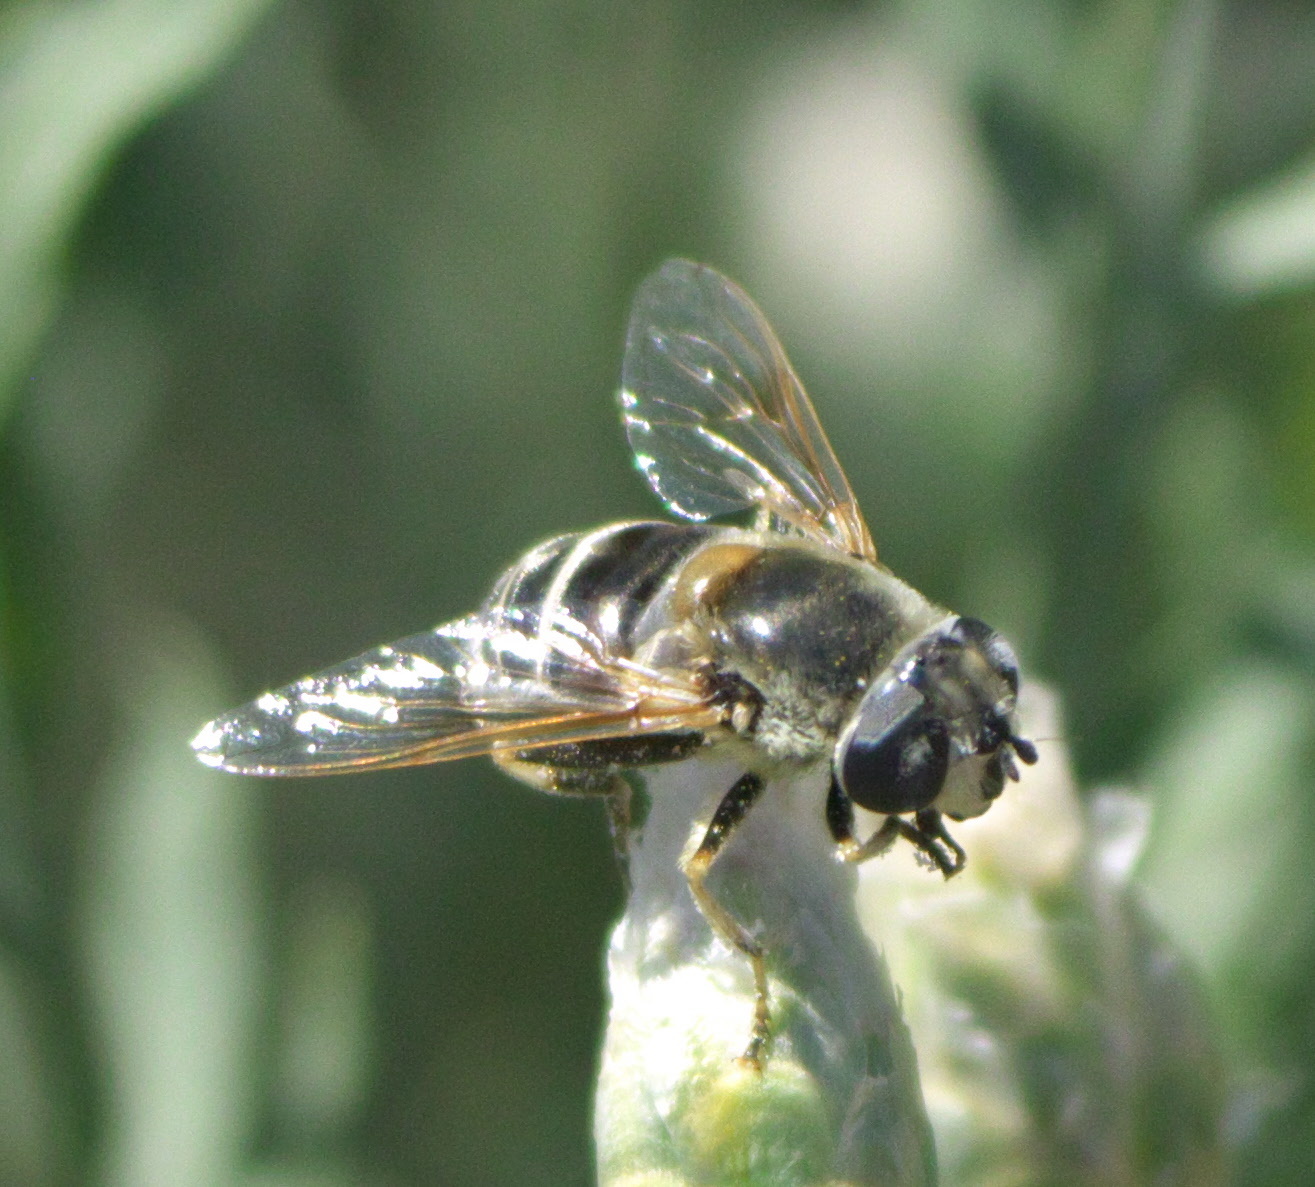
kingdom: Animalia
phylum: Arthropoda
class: Insecta
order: Diptera
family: Syrphidae
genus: Eristalis
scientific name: Eristalis stipator
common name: Yellow-shouldered drone fly
